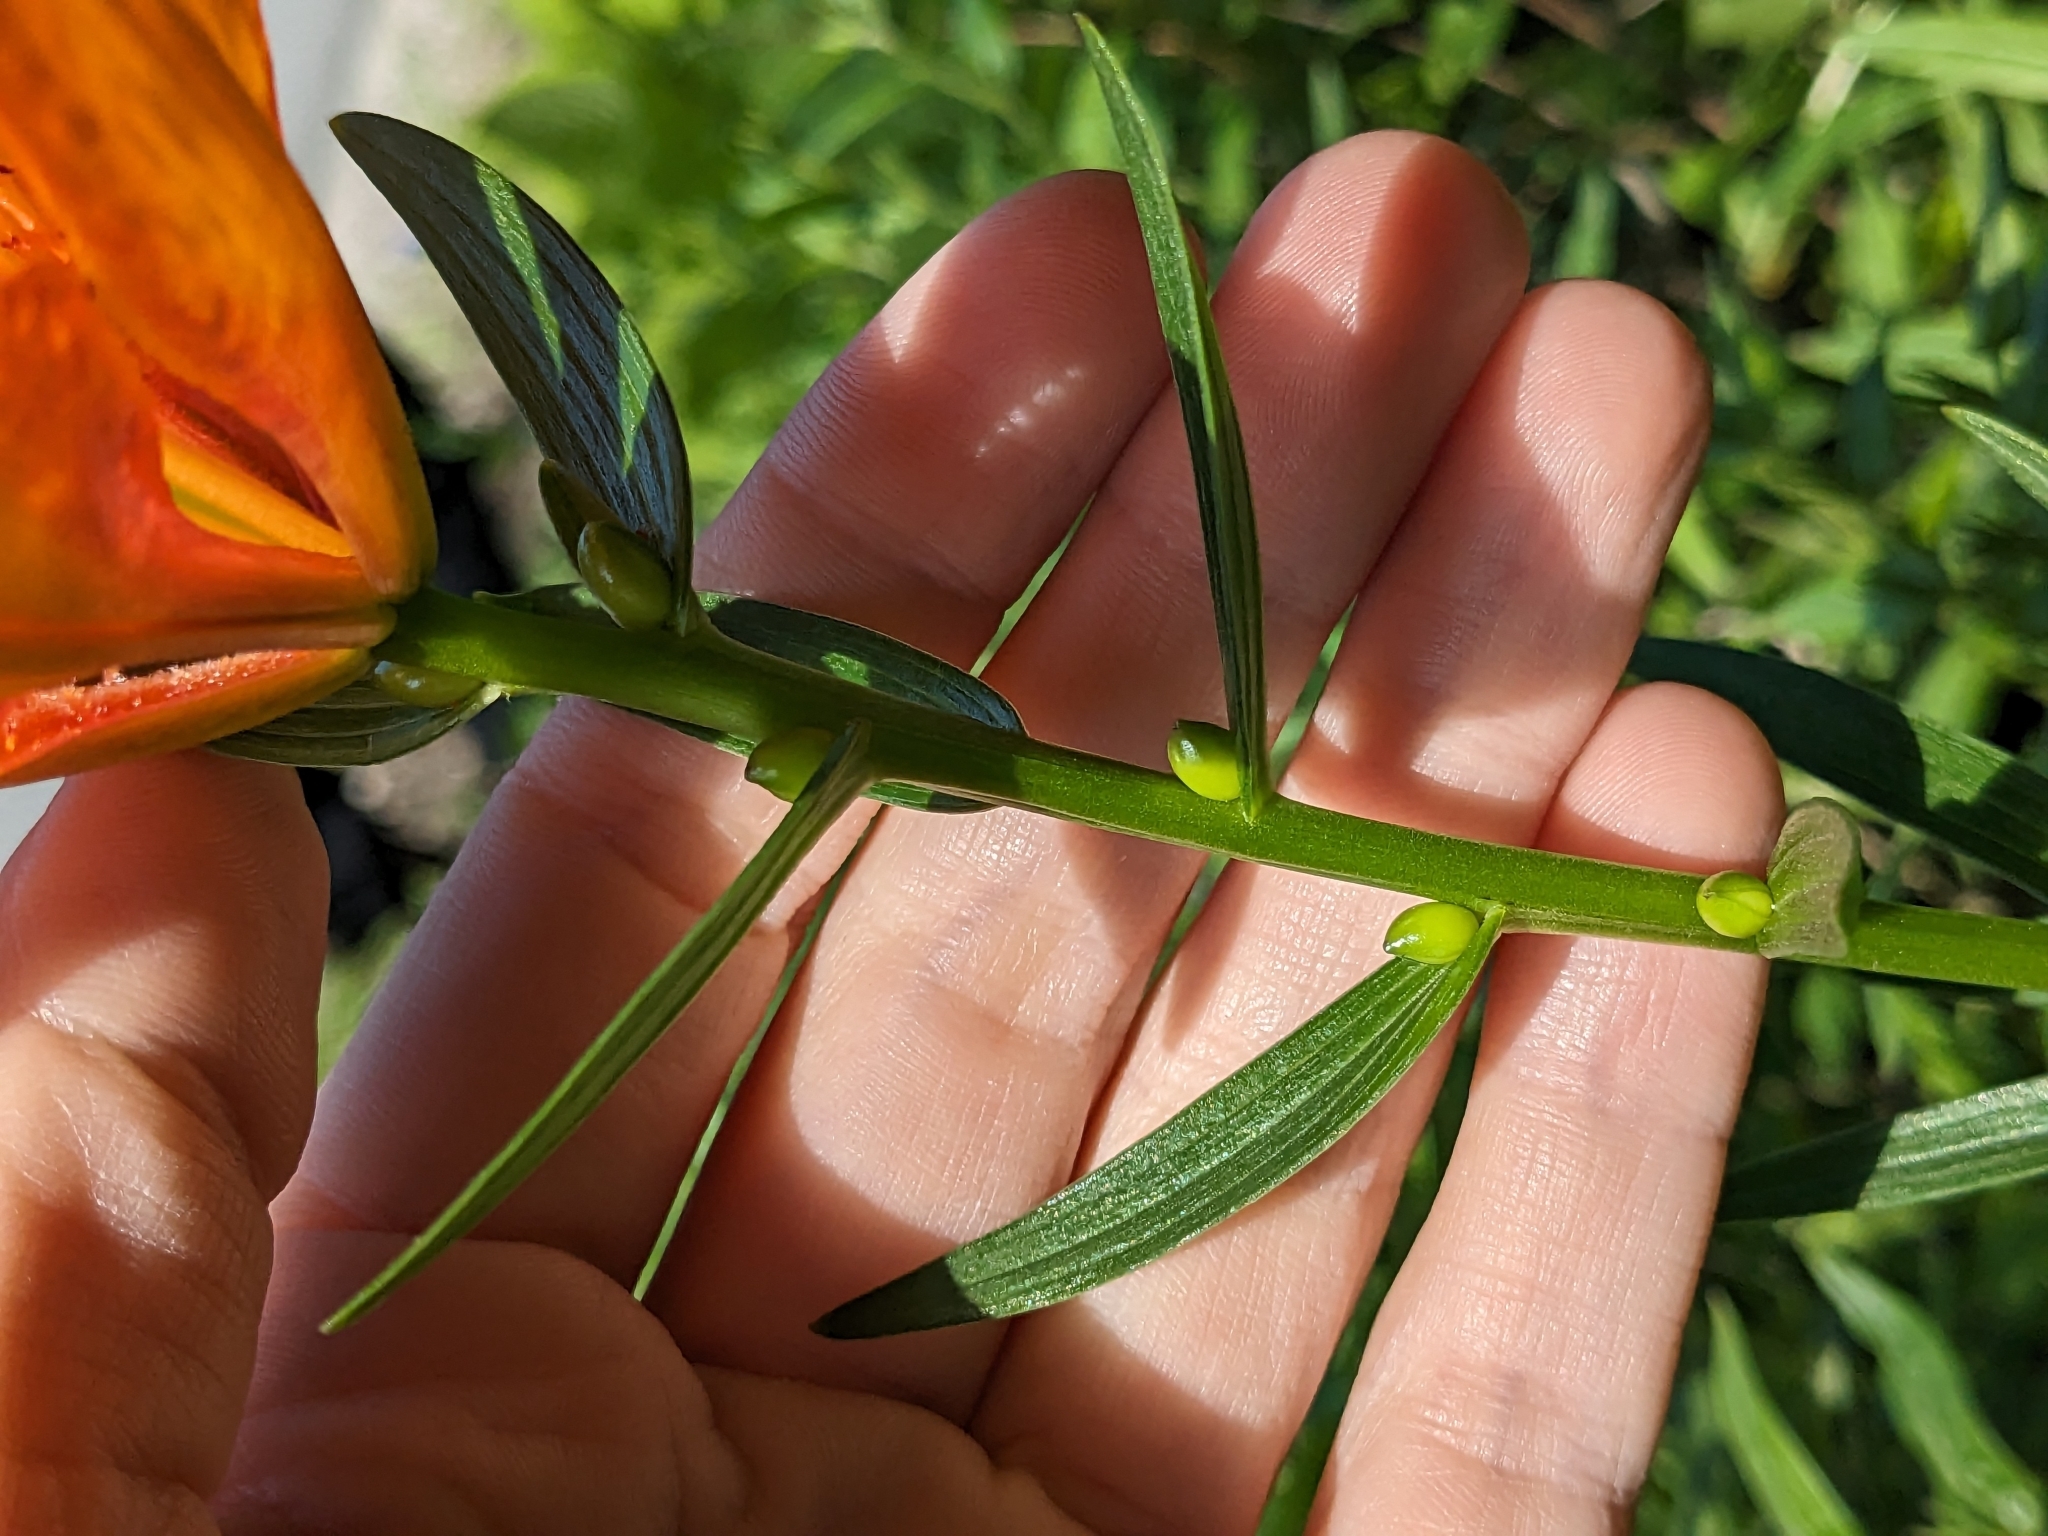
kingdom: Plantae
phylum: Tracheophyta
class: Liliopsida
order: Liliales
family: Liliaceae
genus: Lilium
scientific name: Lilium bulbiferum
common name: Orange lily
